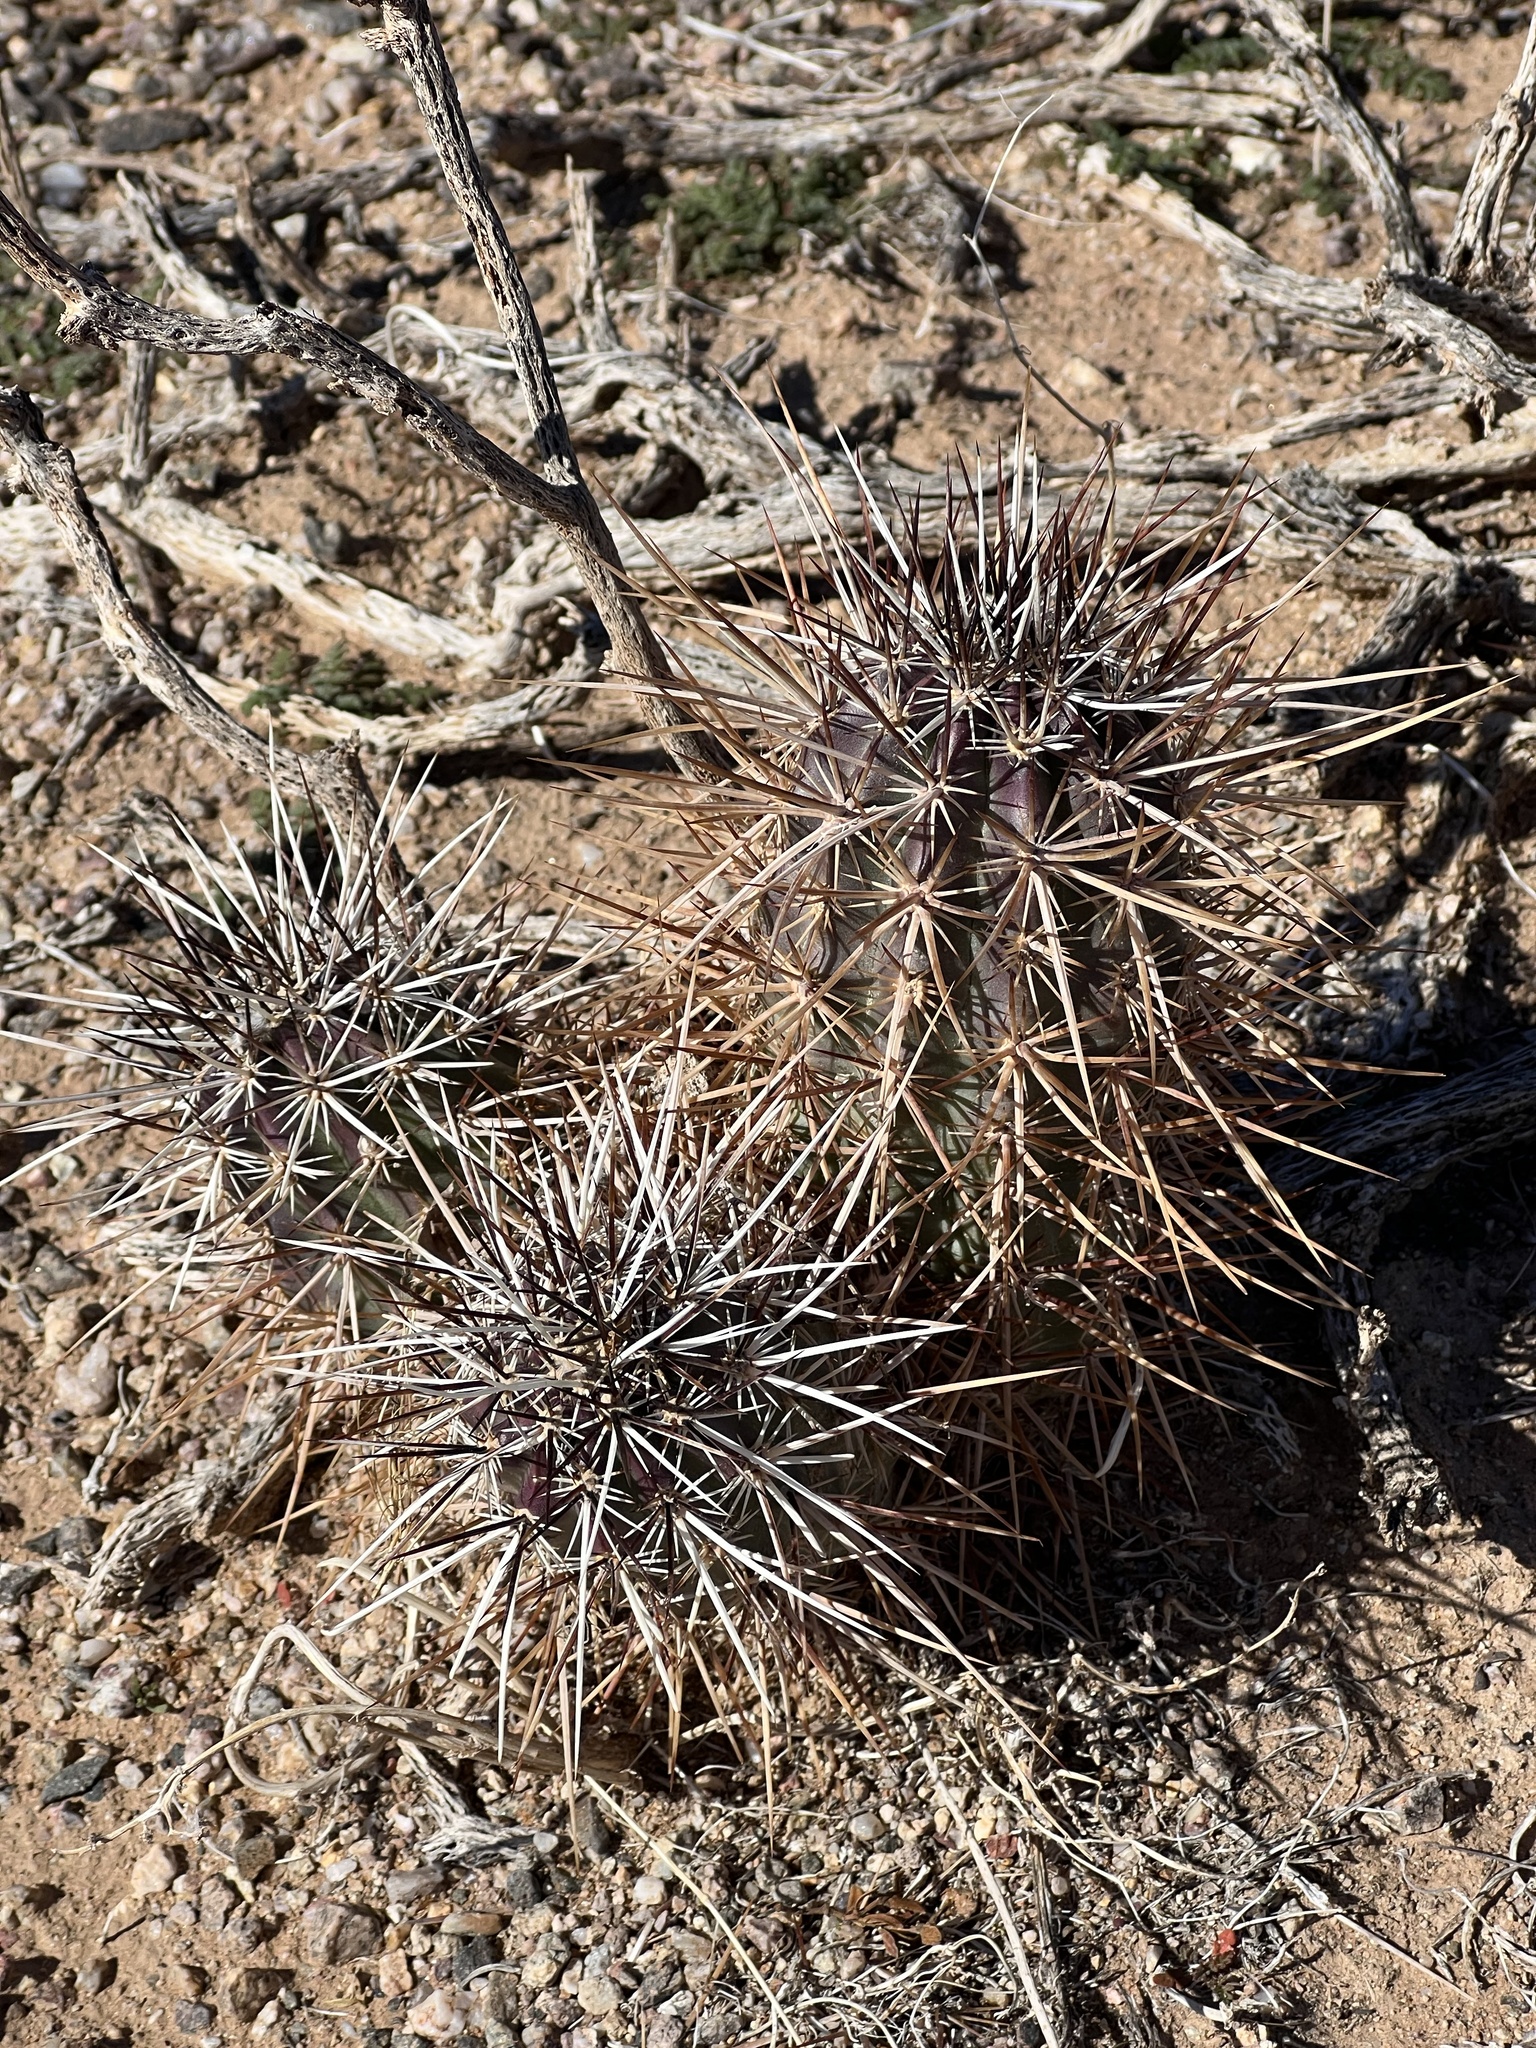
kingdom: Plantae
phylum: Tracheophyta
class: Magnoliopsida
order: Caryophyllales
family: Cactaceae
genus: Echinocereus
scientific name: Echinocereus engelmannii
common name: Engelmann's hedgehog cactus
